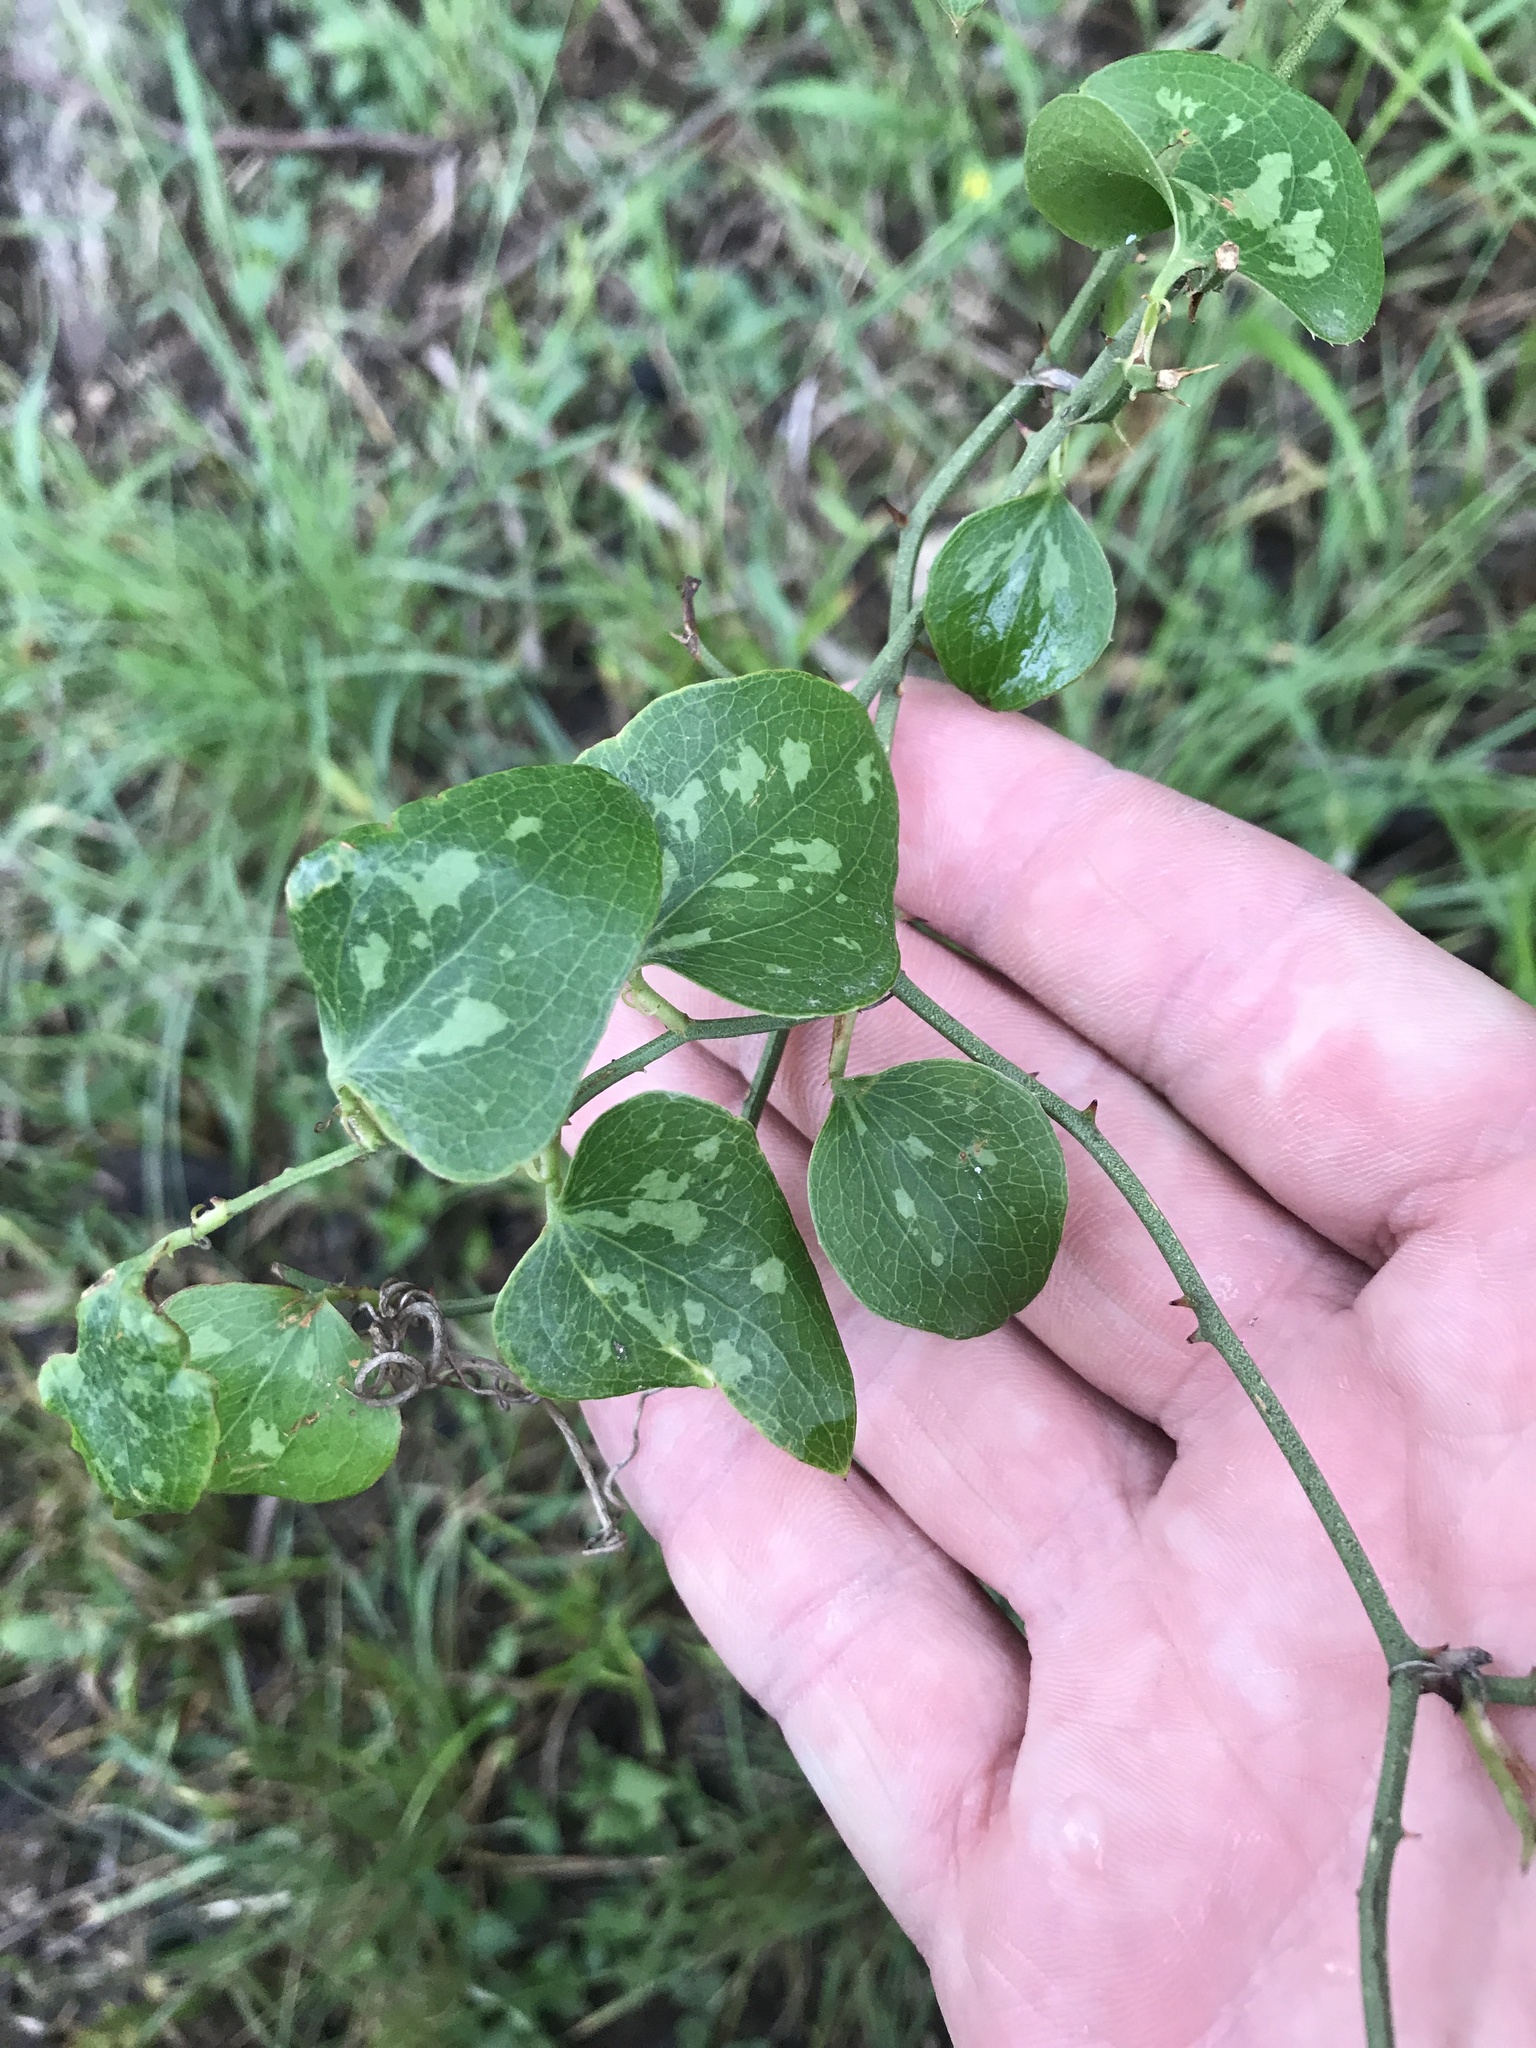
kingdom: Plantae
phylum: Tracheophyta
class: Liliopsida
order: Liliales
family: Smilacaceae
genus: Smilax
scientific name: Smilax bona-nox
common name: Catbrier
